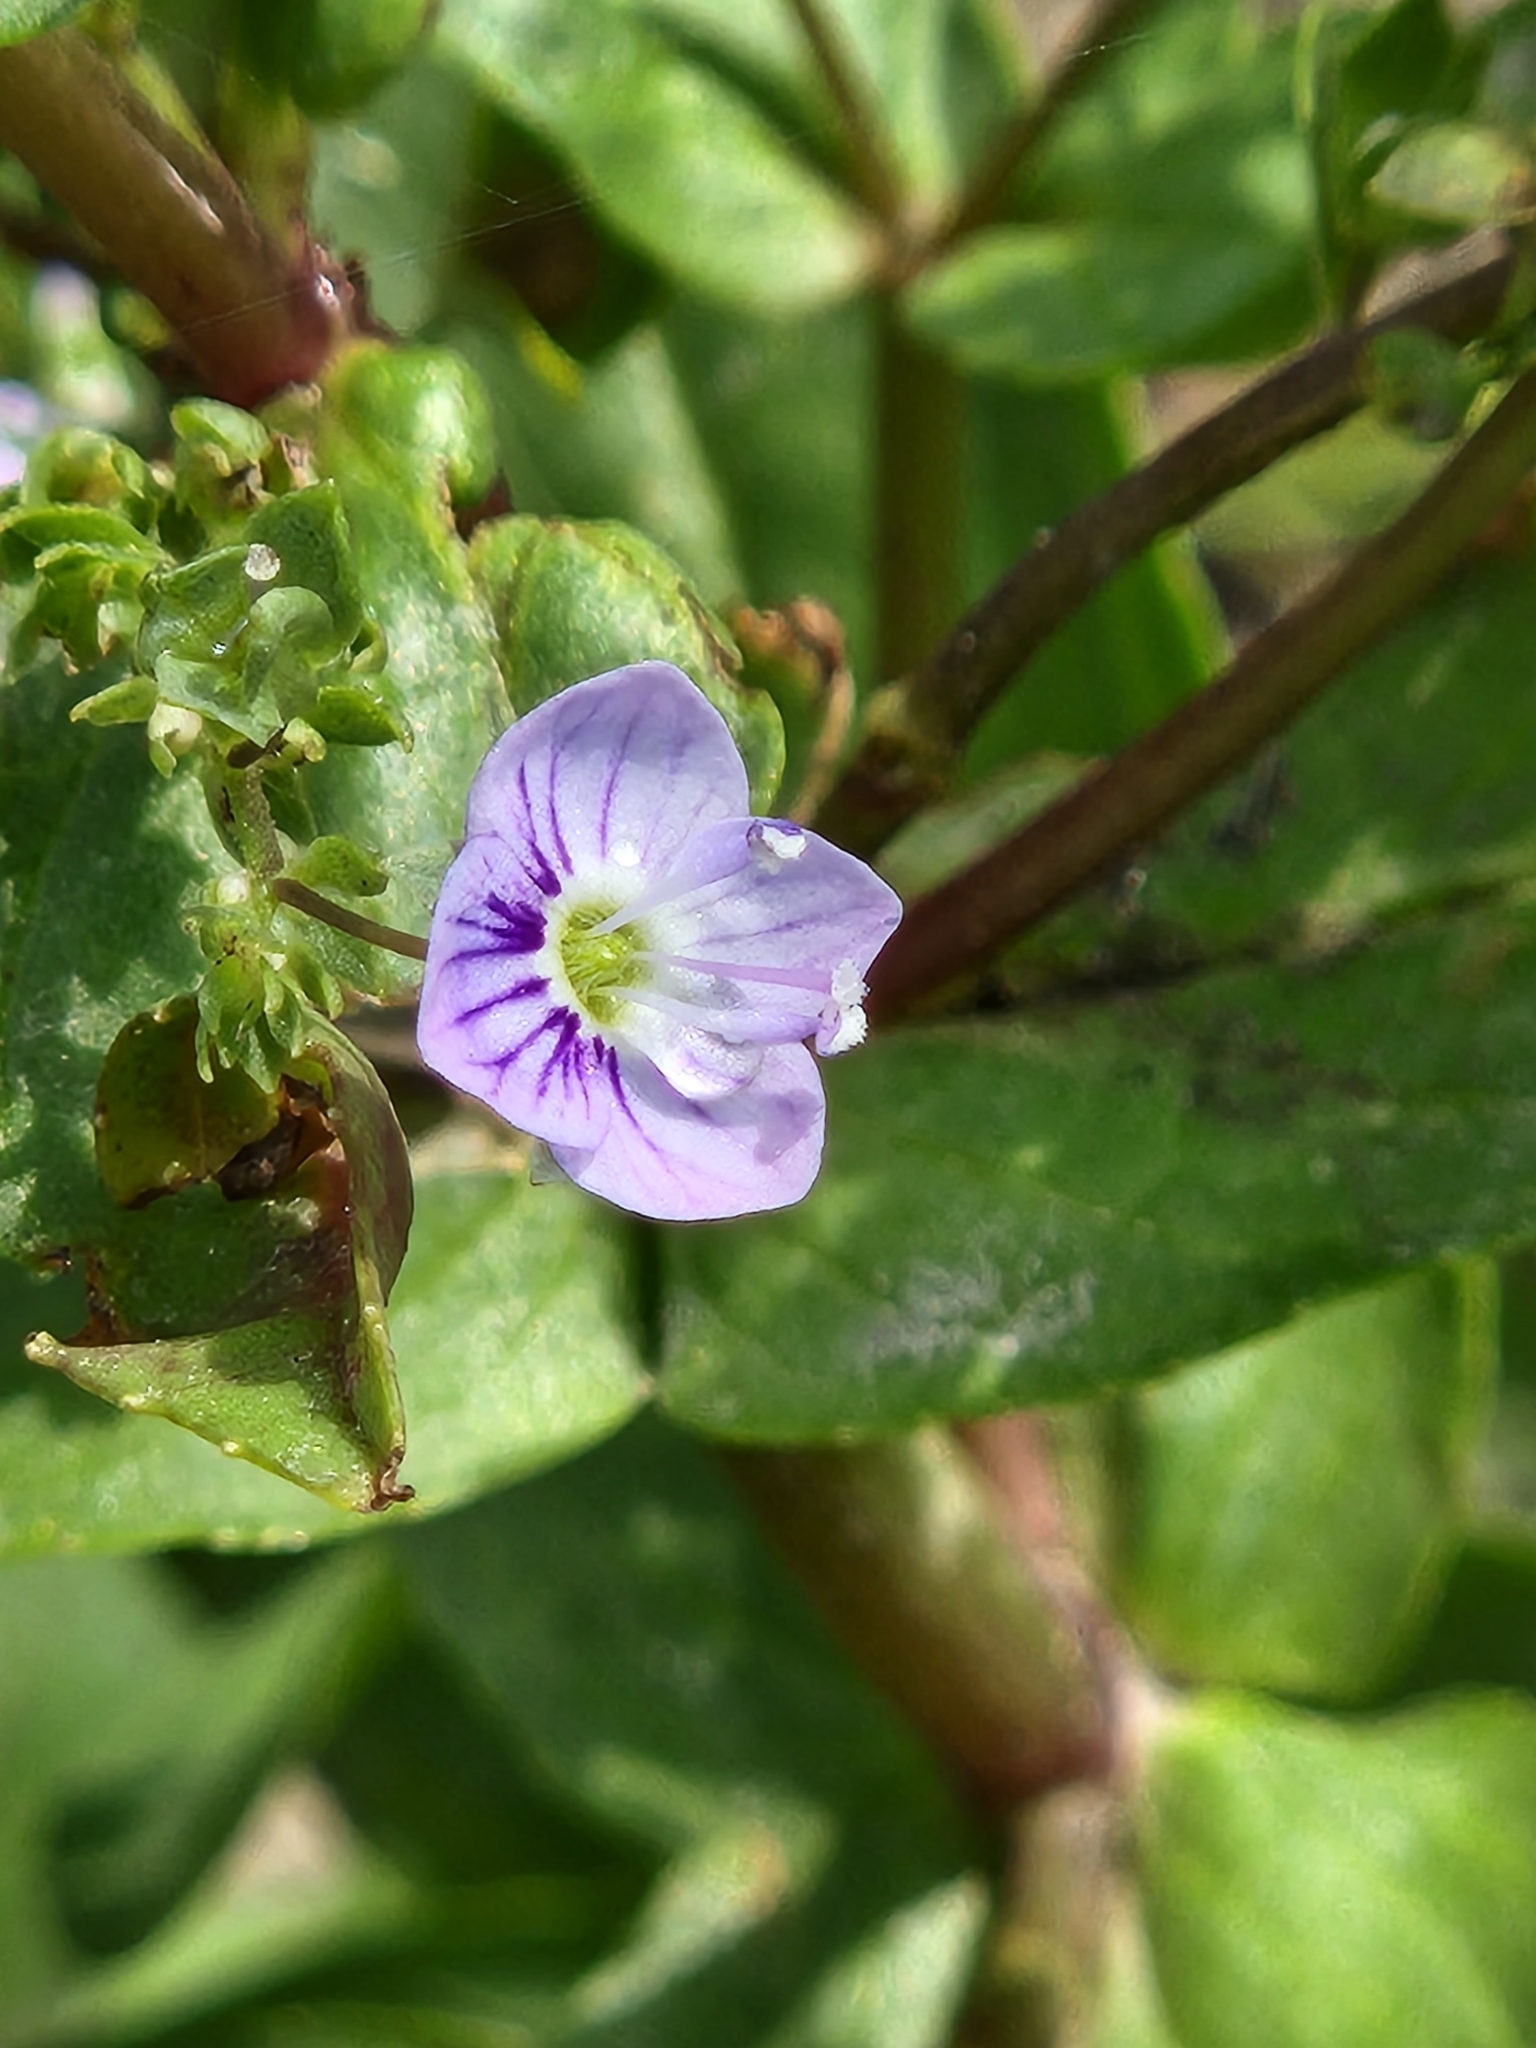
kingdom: Plantae
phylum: Tracheophyta
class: Magnoliopsida
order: Lamiales
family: Plantaginaceae
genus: Veronica
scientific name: Veronica anagallis-aquatica
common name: Water speedwell
